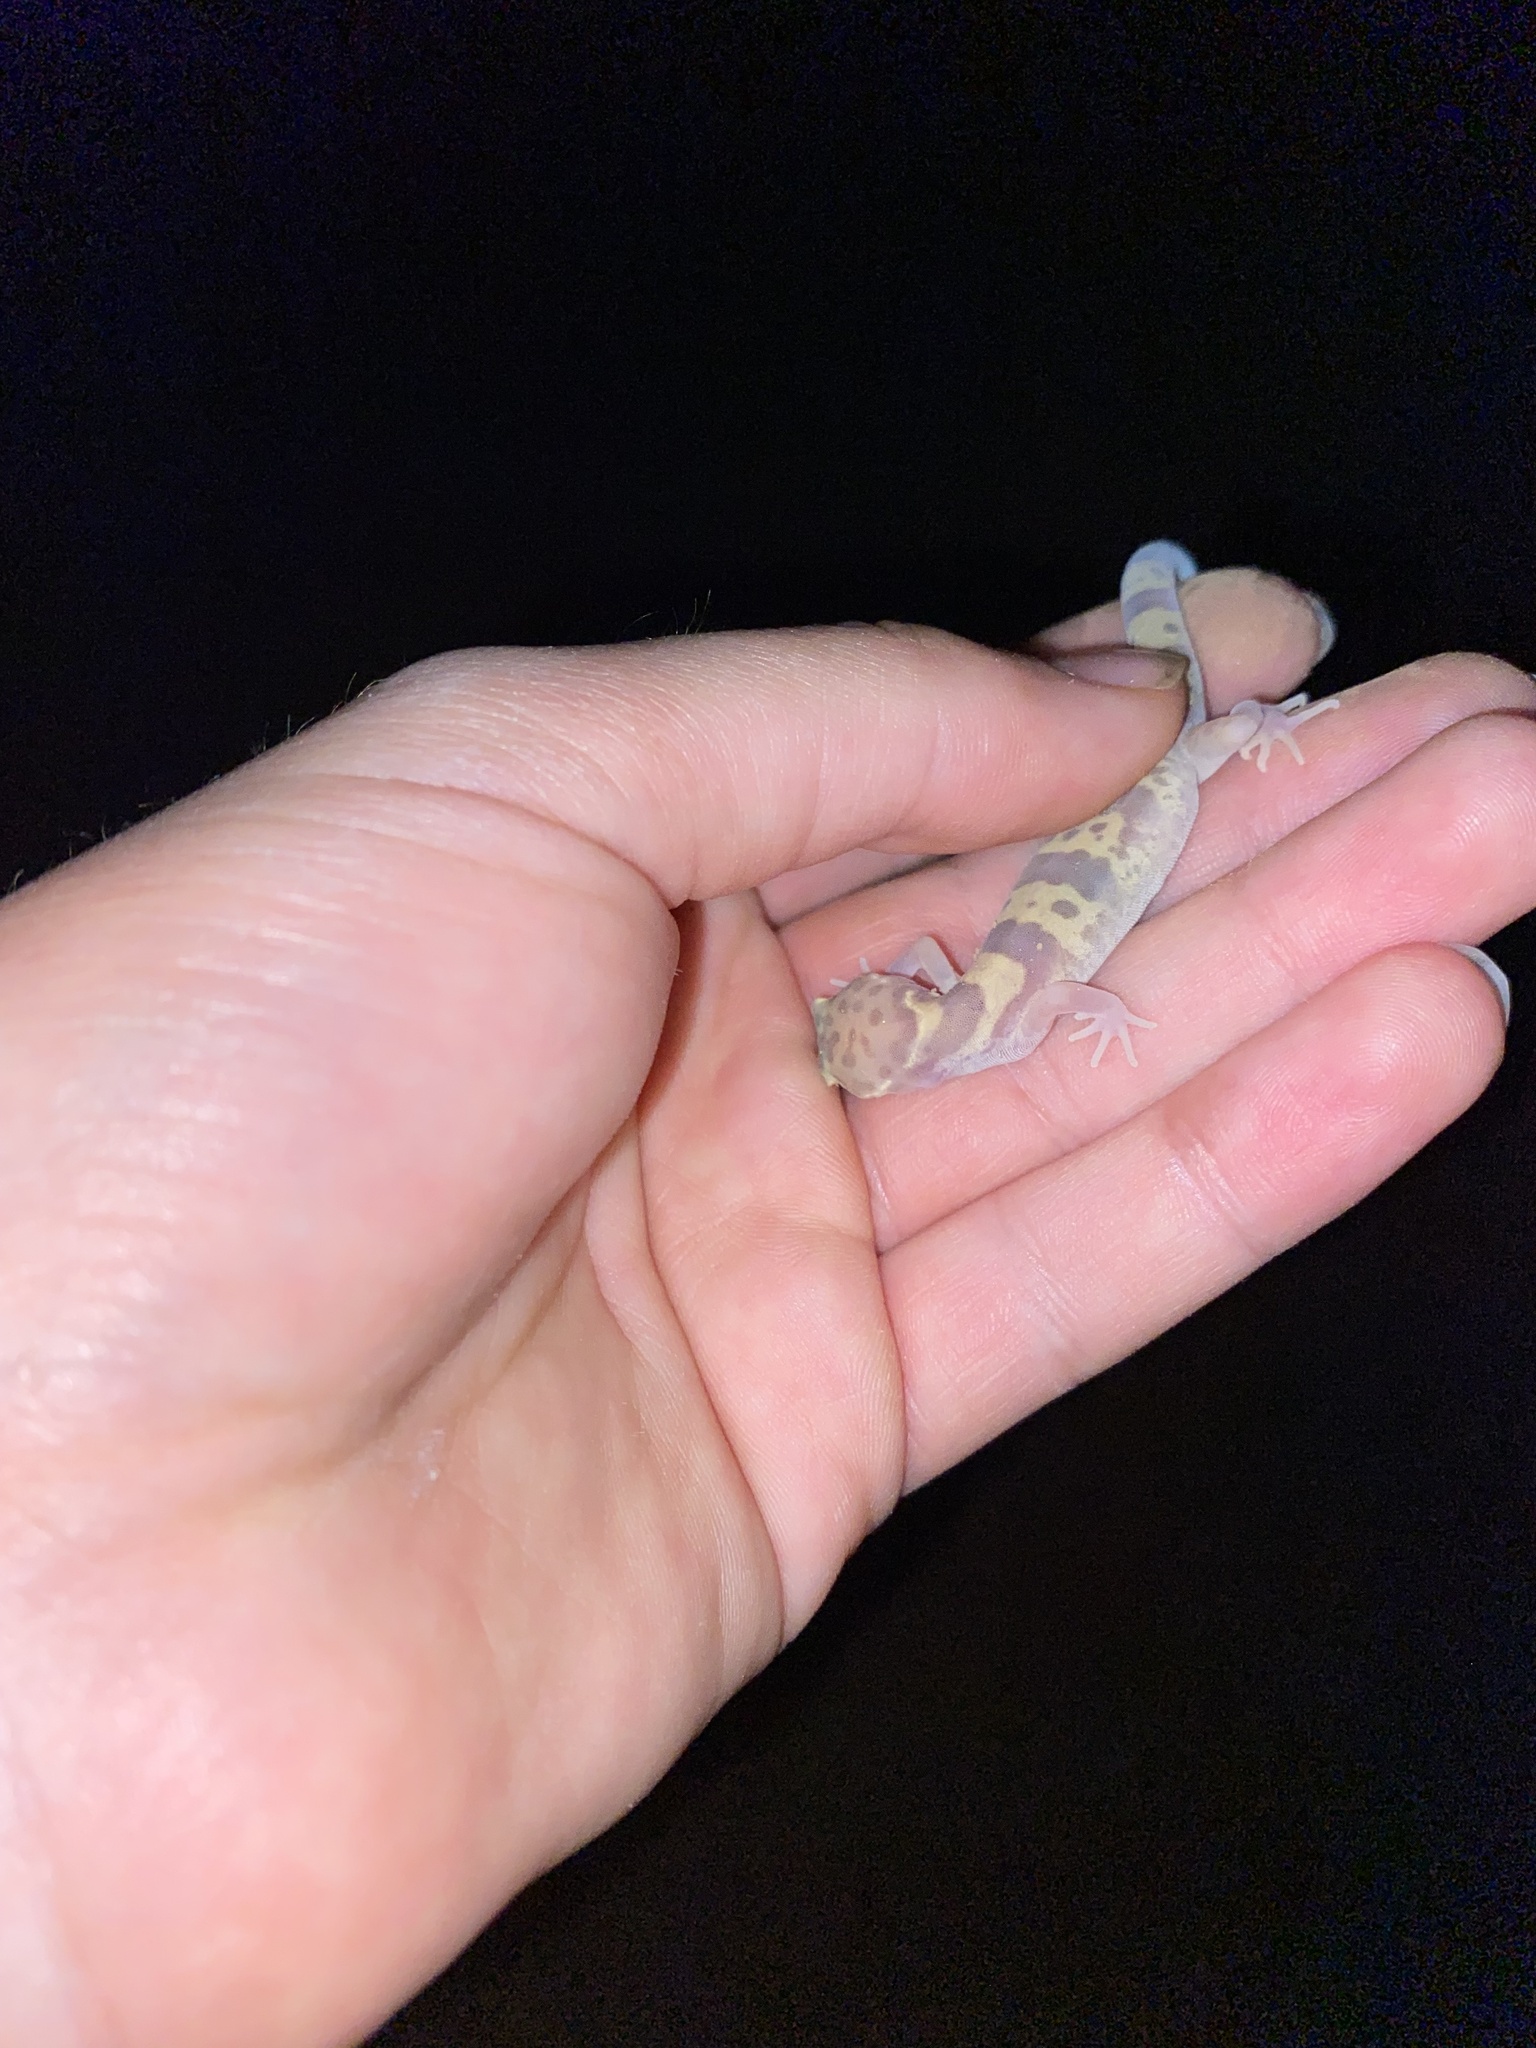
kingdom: Animalia
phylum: Chordata
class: Squamata
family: Eublepharidae
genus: Coleonyx
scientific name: Coleonyx variegatus
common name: Western banded gecko
